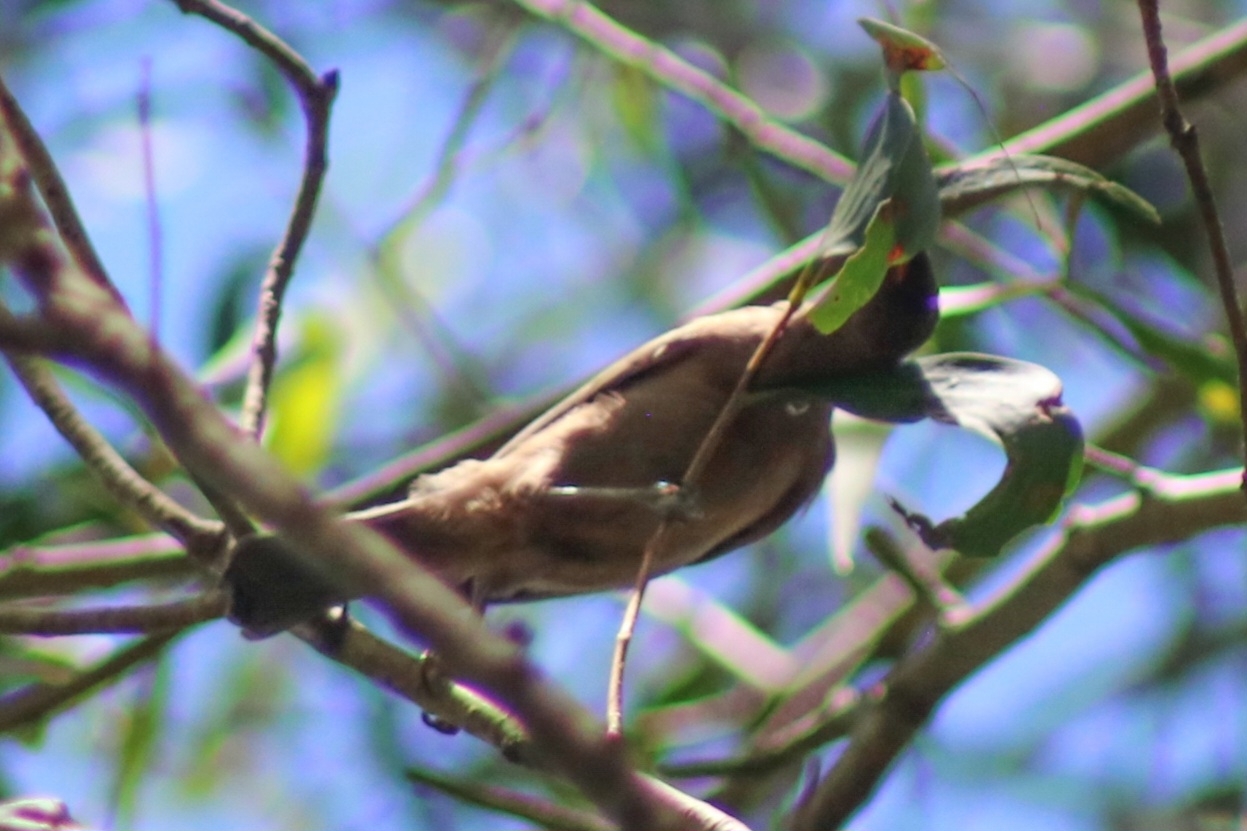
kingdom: Animalia
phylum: Chordata
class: Aves
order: Passeriformes
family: Meliphagidae
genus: Myzomela
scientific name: Myzomela obscura
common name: Dusky myzomela
